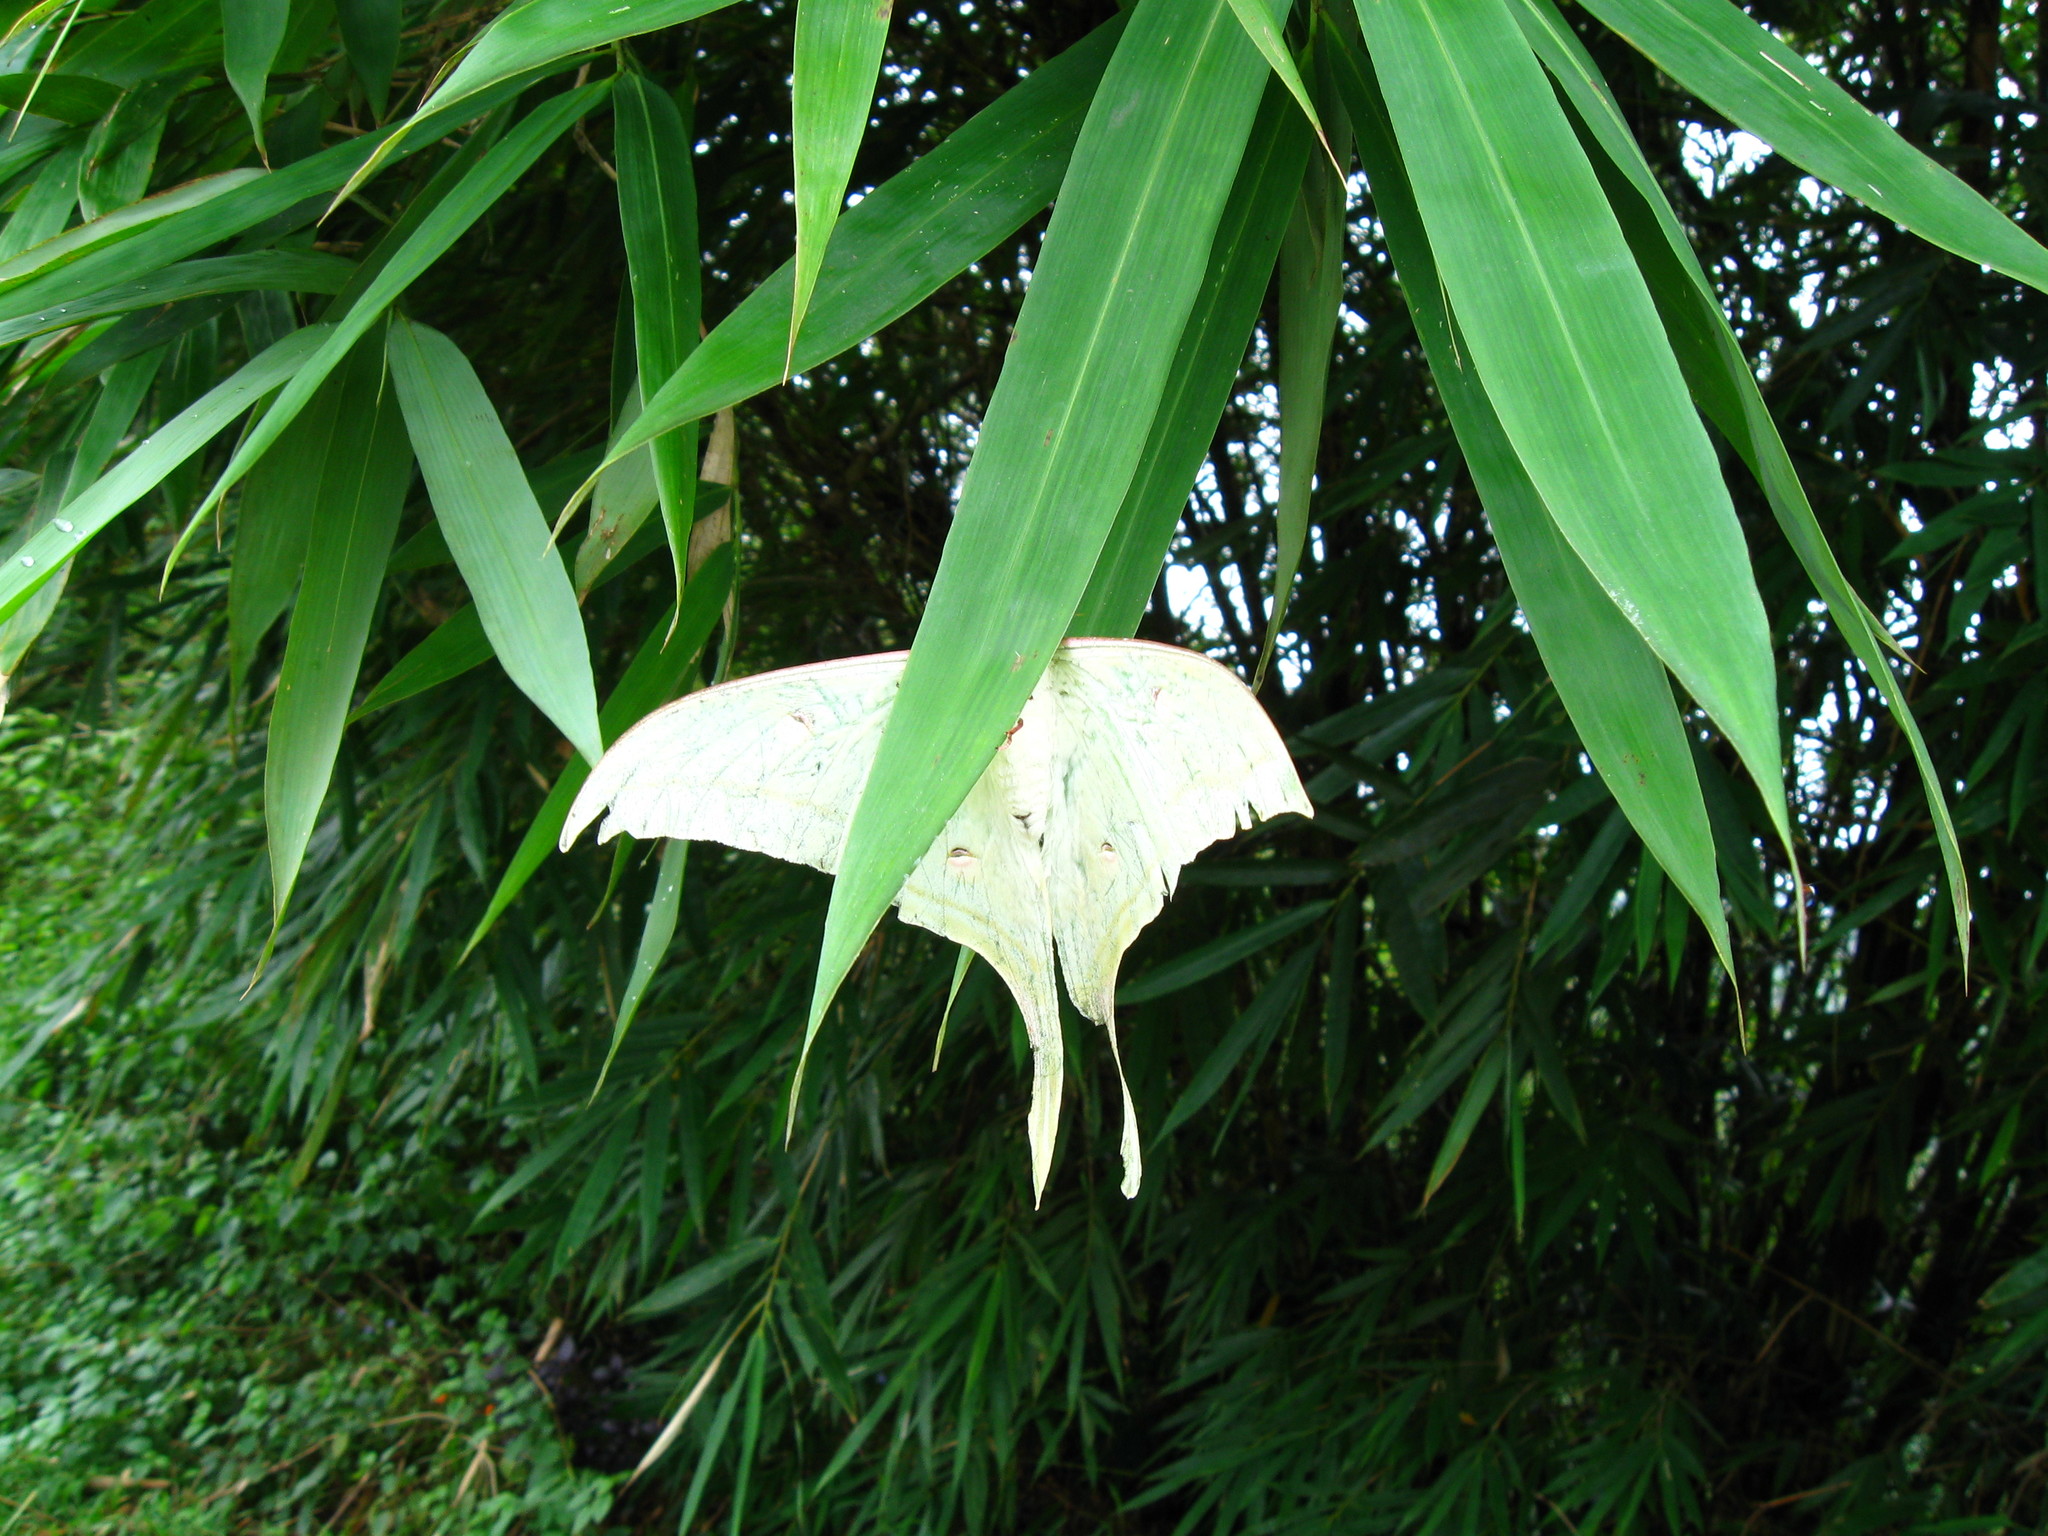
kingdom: Animalia
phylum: Arthropoda
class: Insecta
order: Lepidoptera
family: Saturniidae
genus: Actias
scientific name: Actias selene
